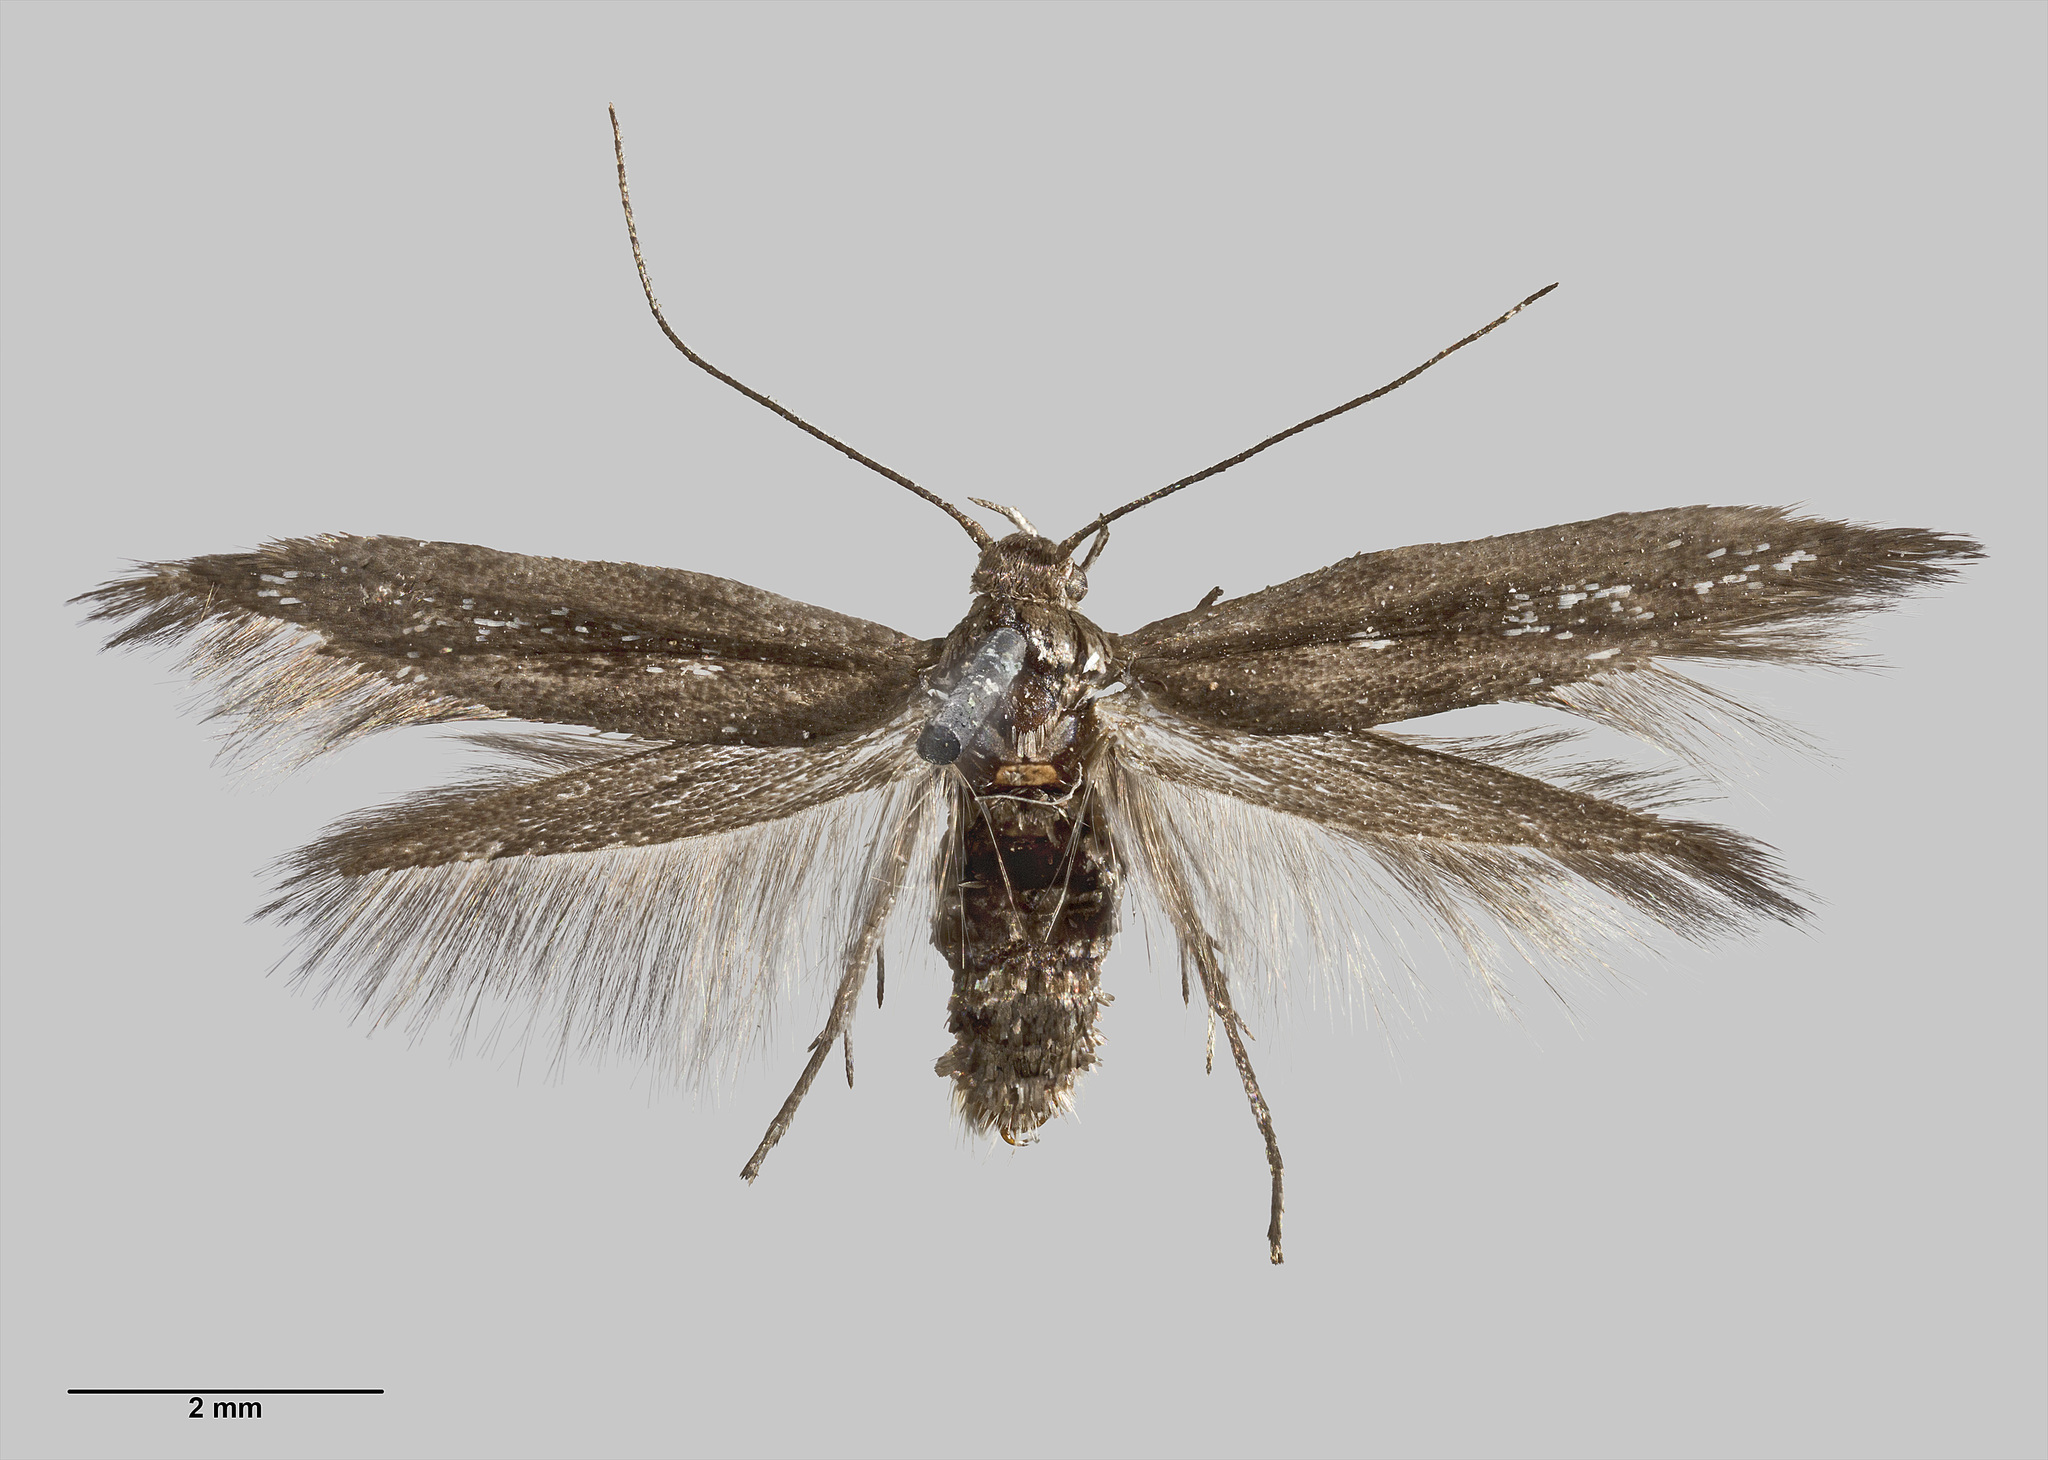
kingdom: Animalia
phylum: Arthropoda
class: Insecta
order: Lepidoptera
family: Scythrididae
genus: Scythris
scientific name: Scythris nigra
